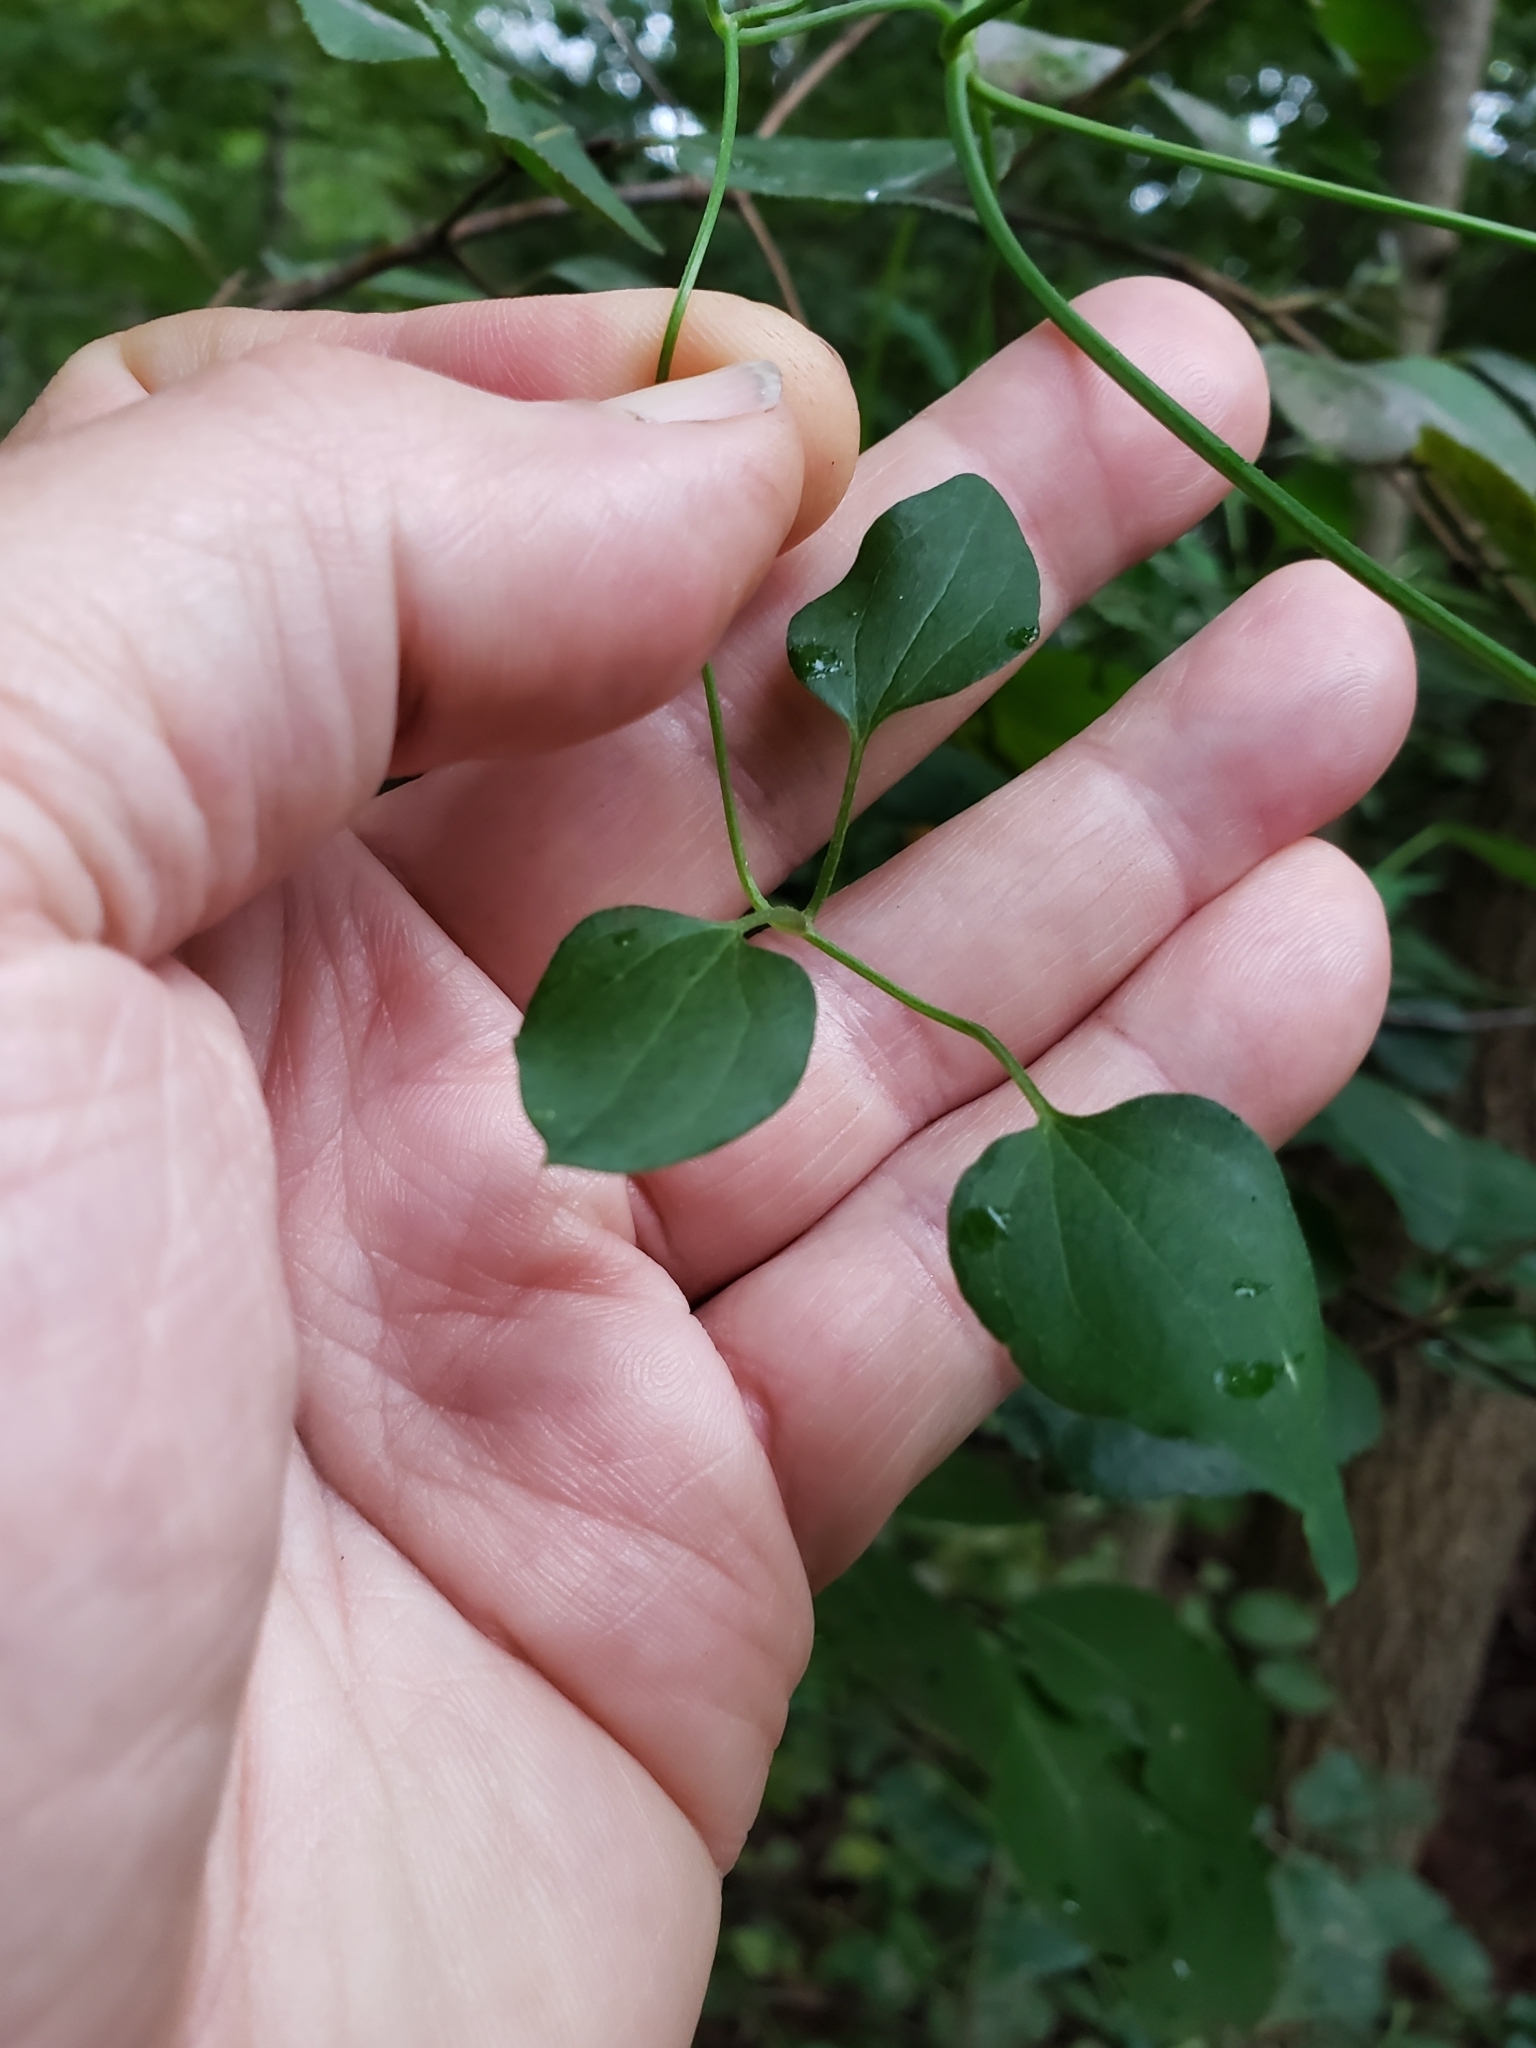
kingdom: Plantae
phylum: Tracheophyta
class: Magnoliopsida
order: Ranunculales
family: Ranunculaceae
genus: Clematis
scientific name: Clematis terniflora
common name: Sweet autumn clematis
